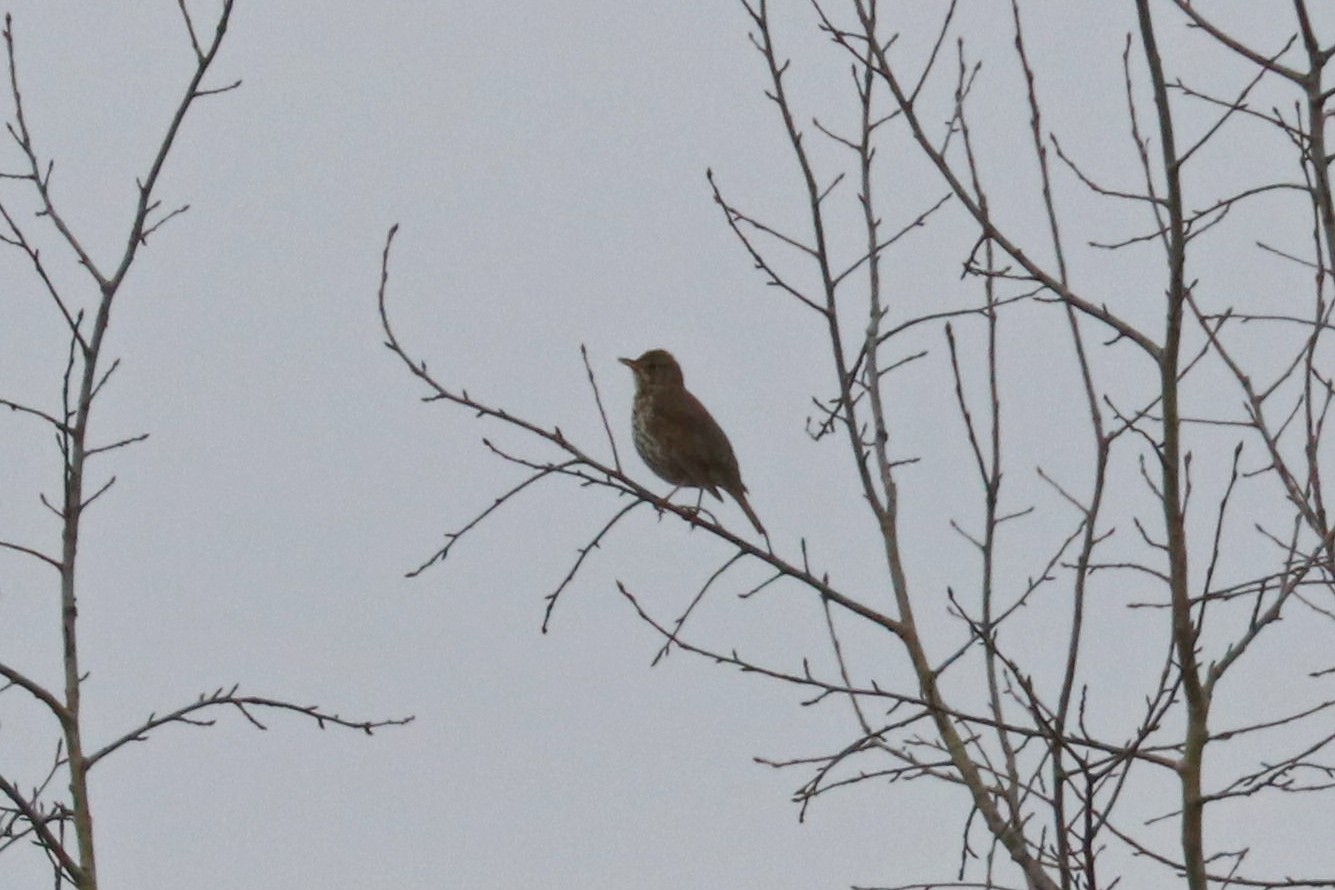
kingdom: Animalia
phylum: Chordata
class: Aves
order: Passeriformes
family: Turdidae
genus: Turdus
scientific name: Turdus philomelos
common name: Song thrush
